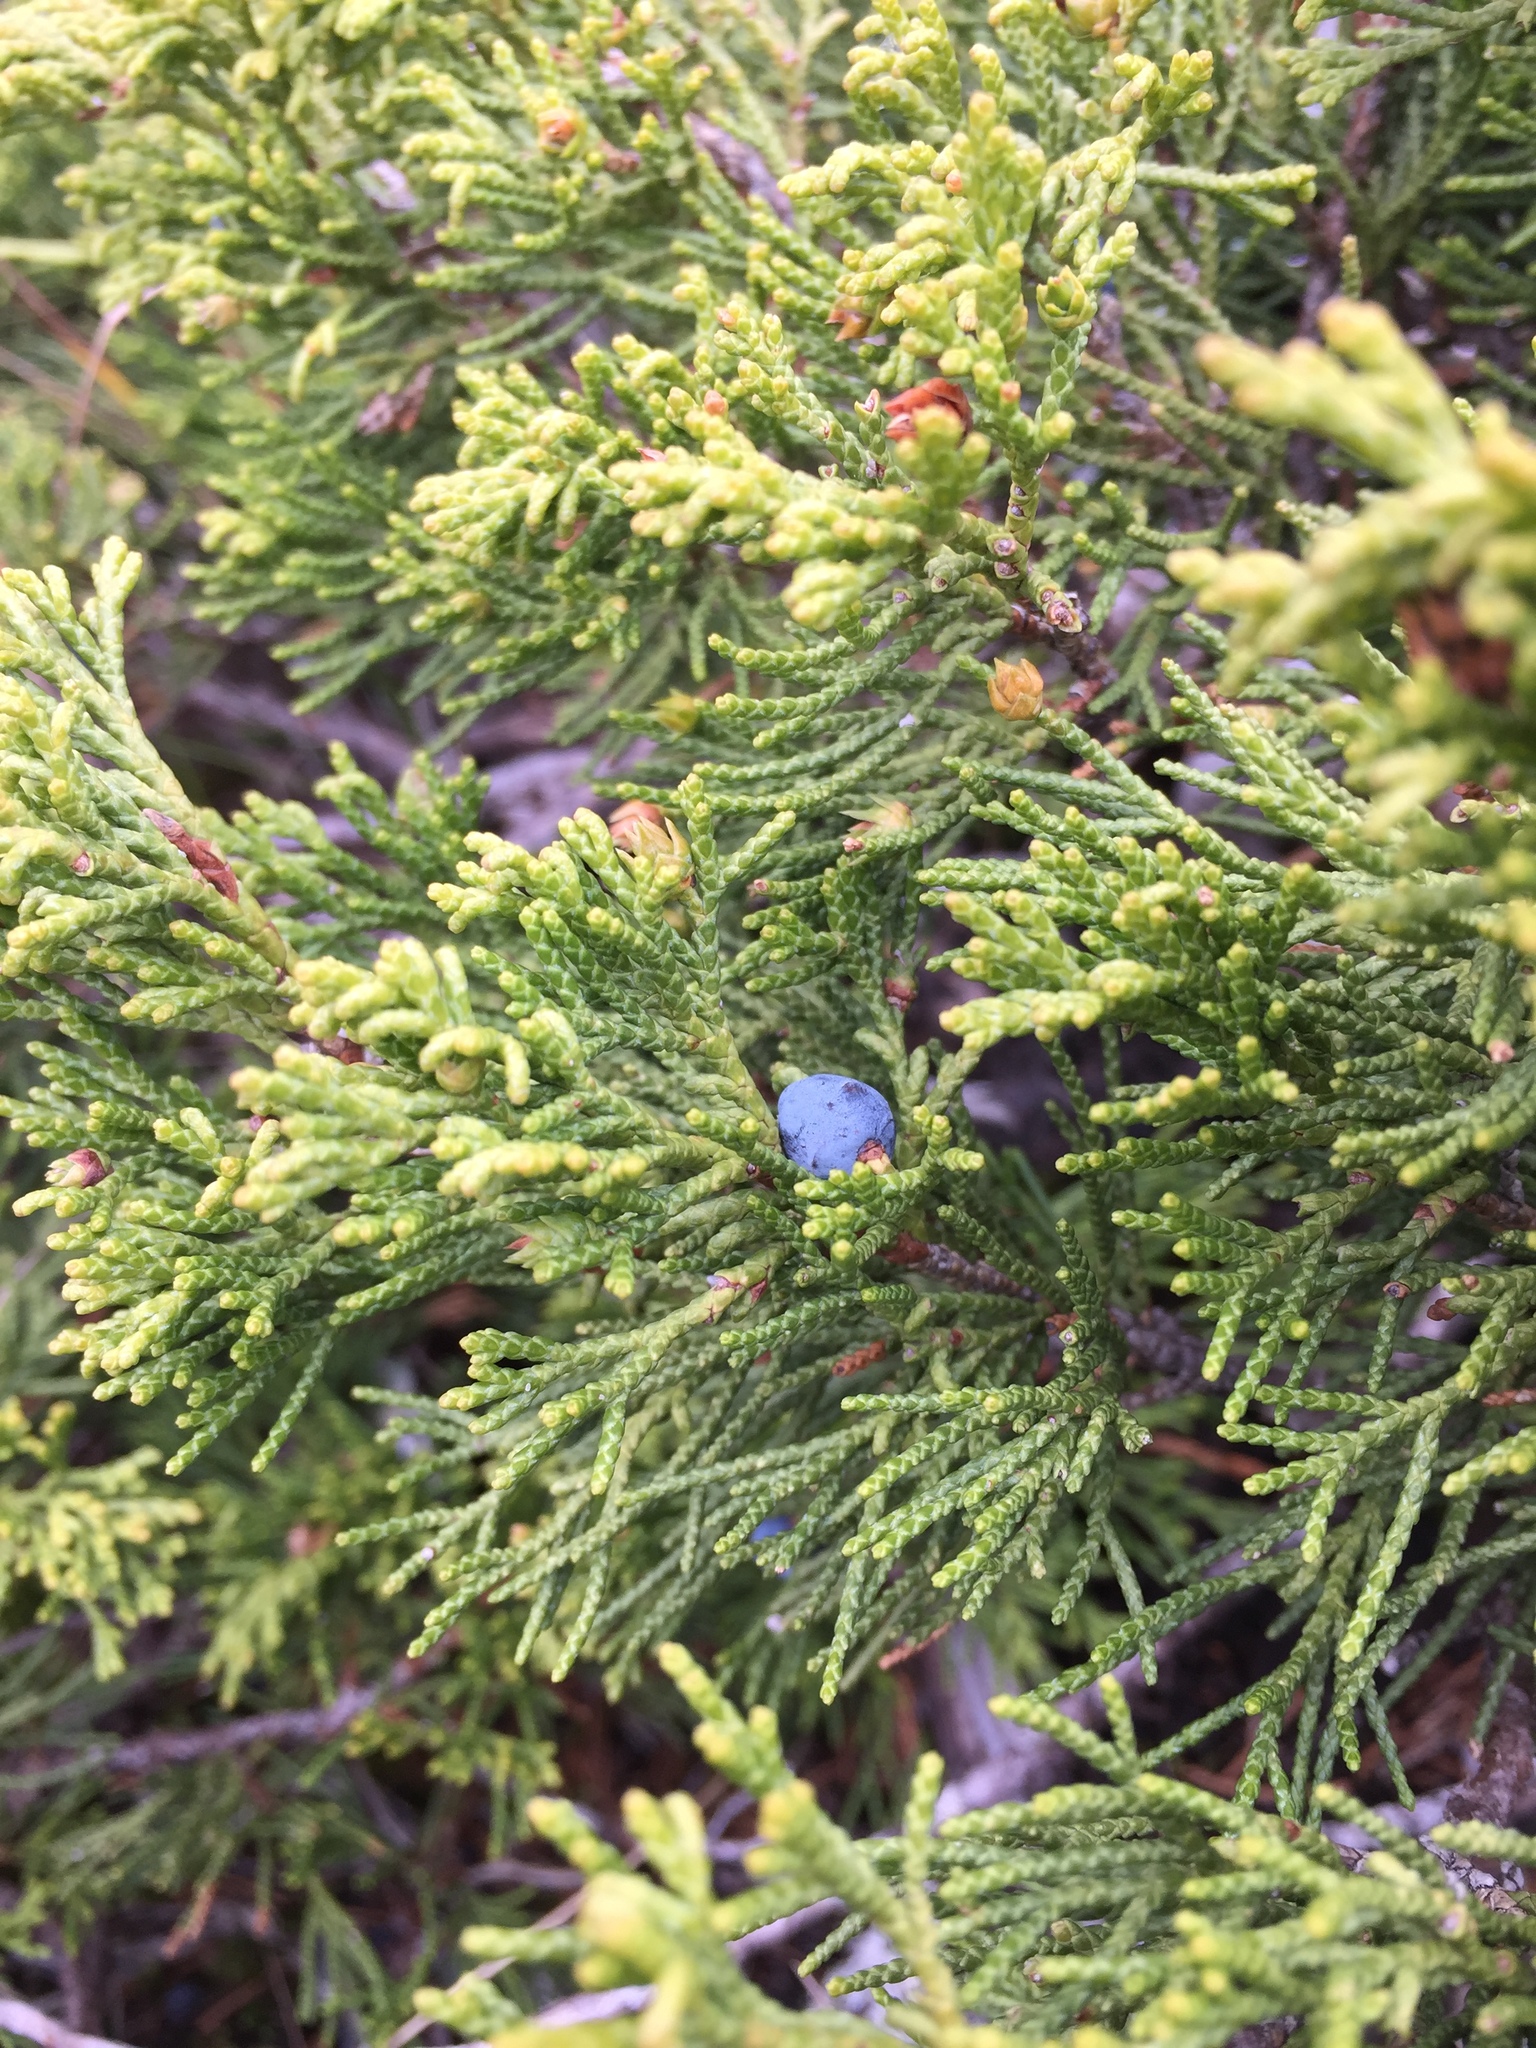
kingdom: Plantae
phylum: Tracheophyta
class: Pinopsida
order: Pinales
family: Cupressaceae
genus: Juniperus
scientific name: Juniperus sabina
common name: Savin
